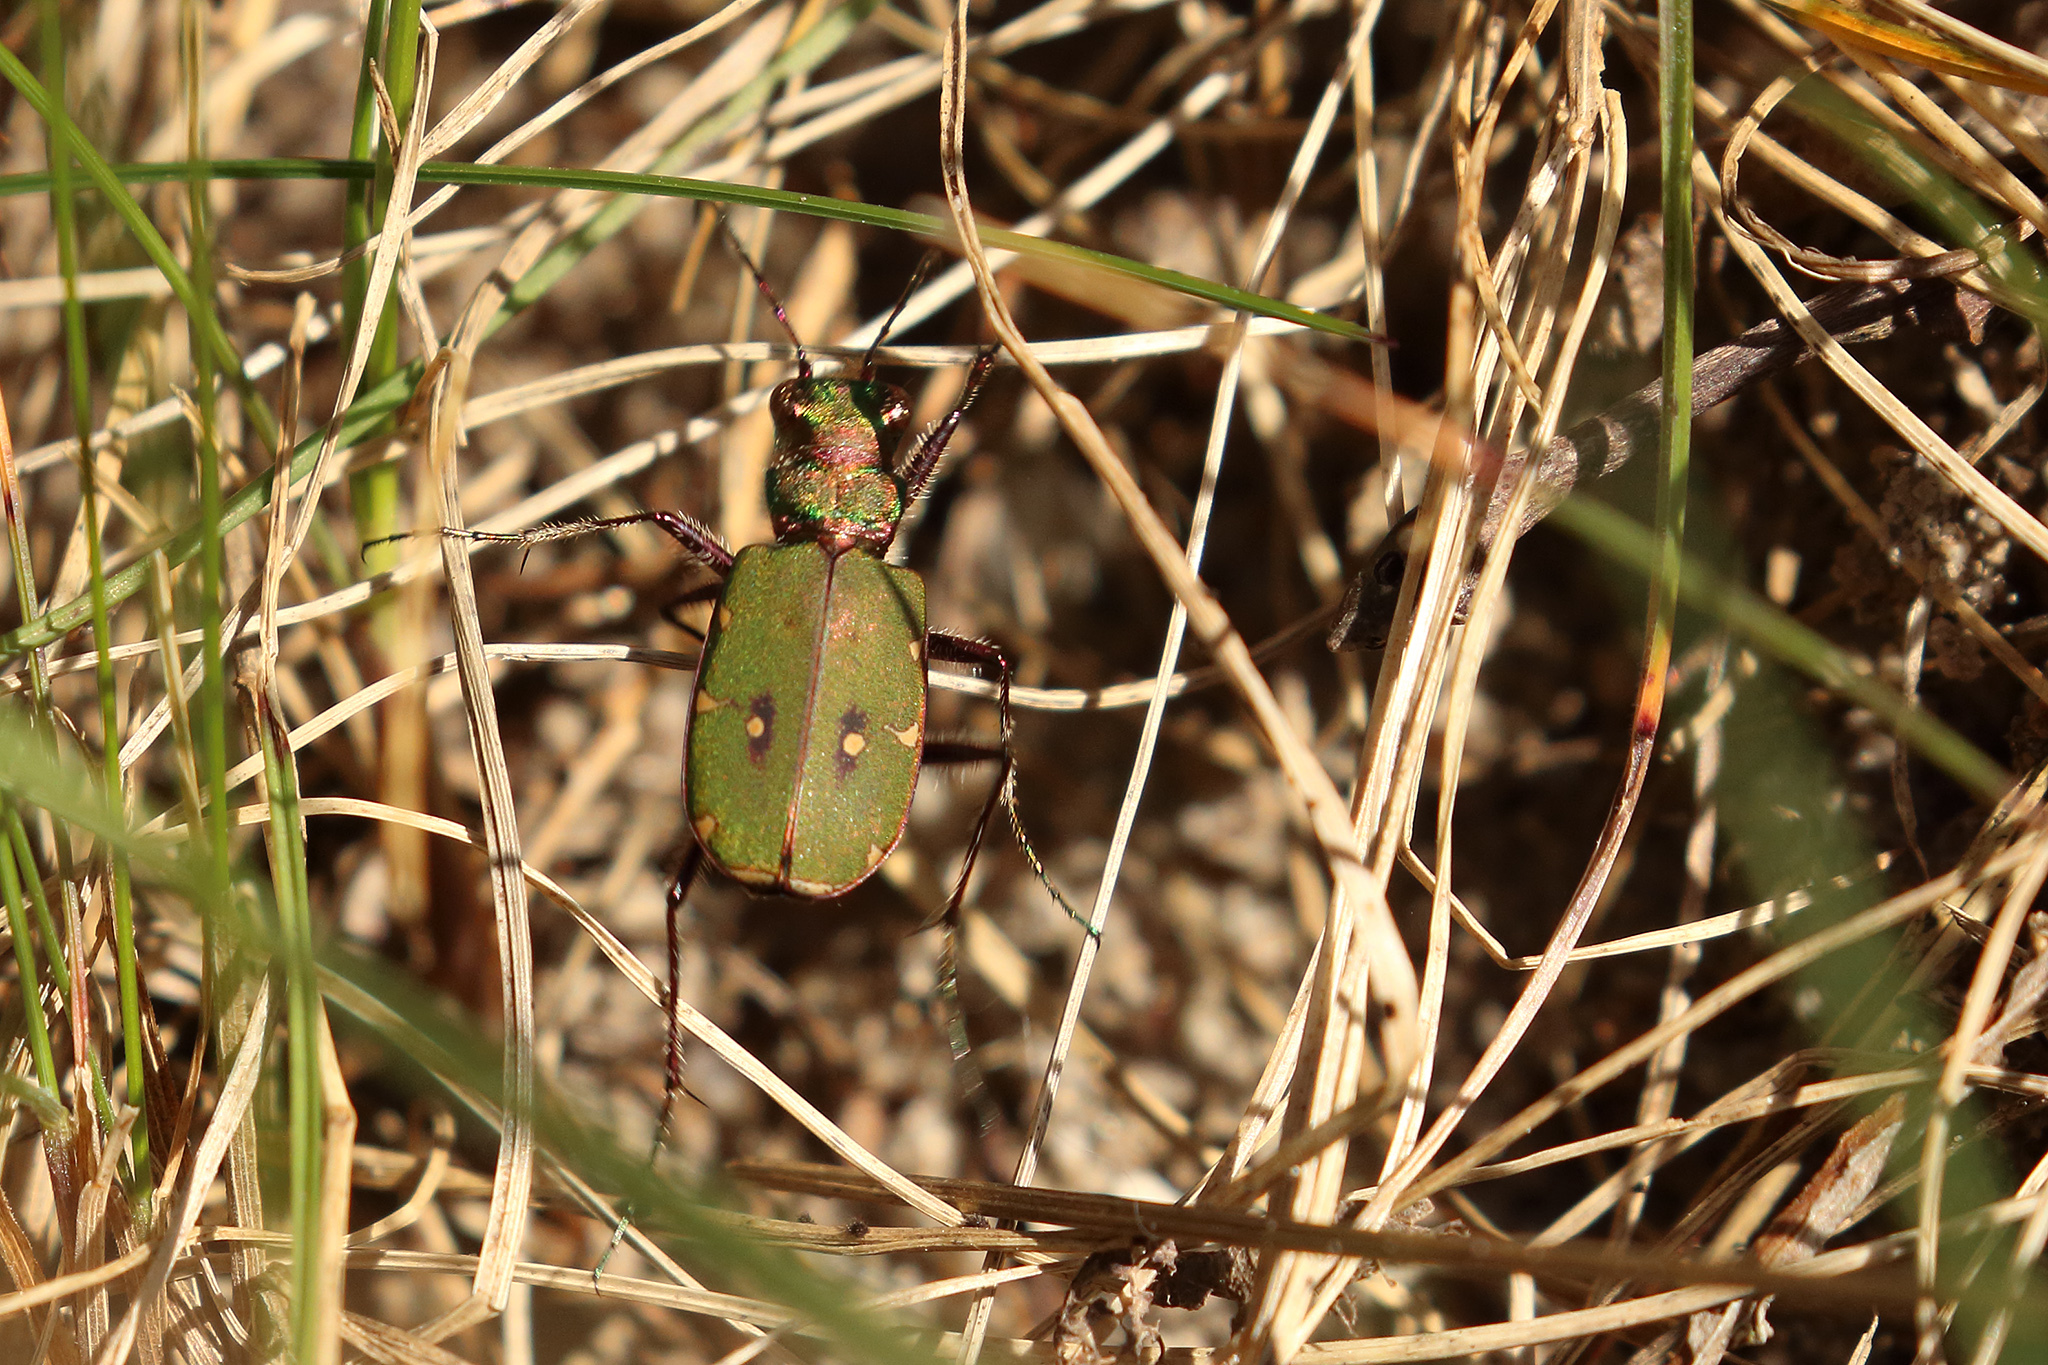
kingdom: Animalia
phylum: Arthropoda
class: Insecta
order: Coleoptera
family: Carabidae
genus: Cicindela
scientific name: Cicindela campestris
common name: Common tiger beetle
